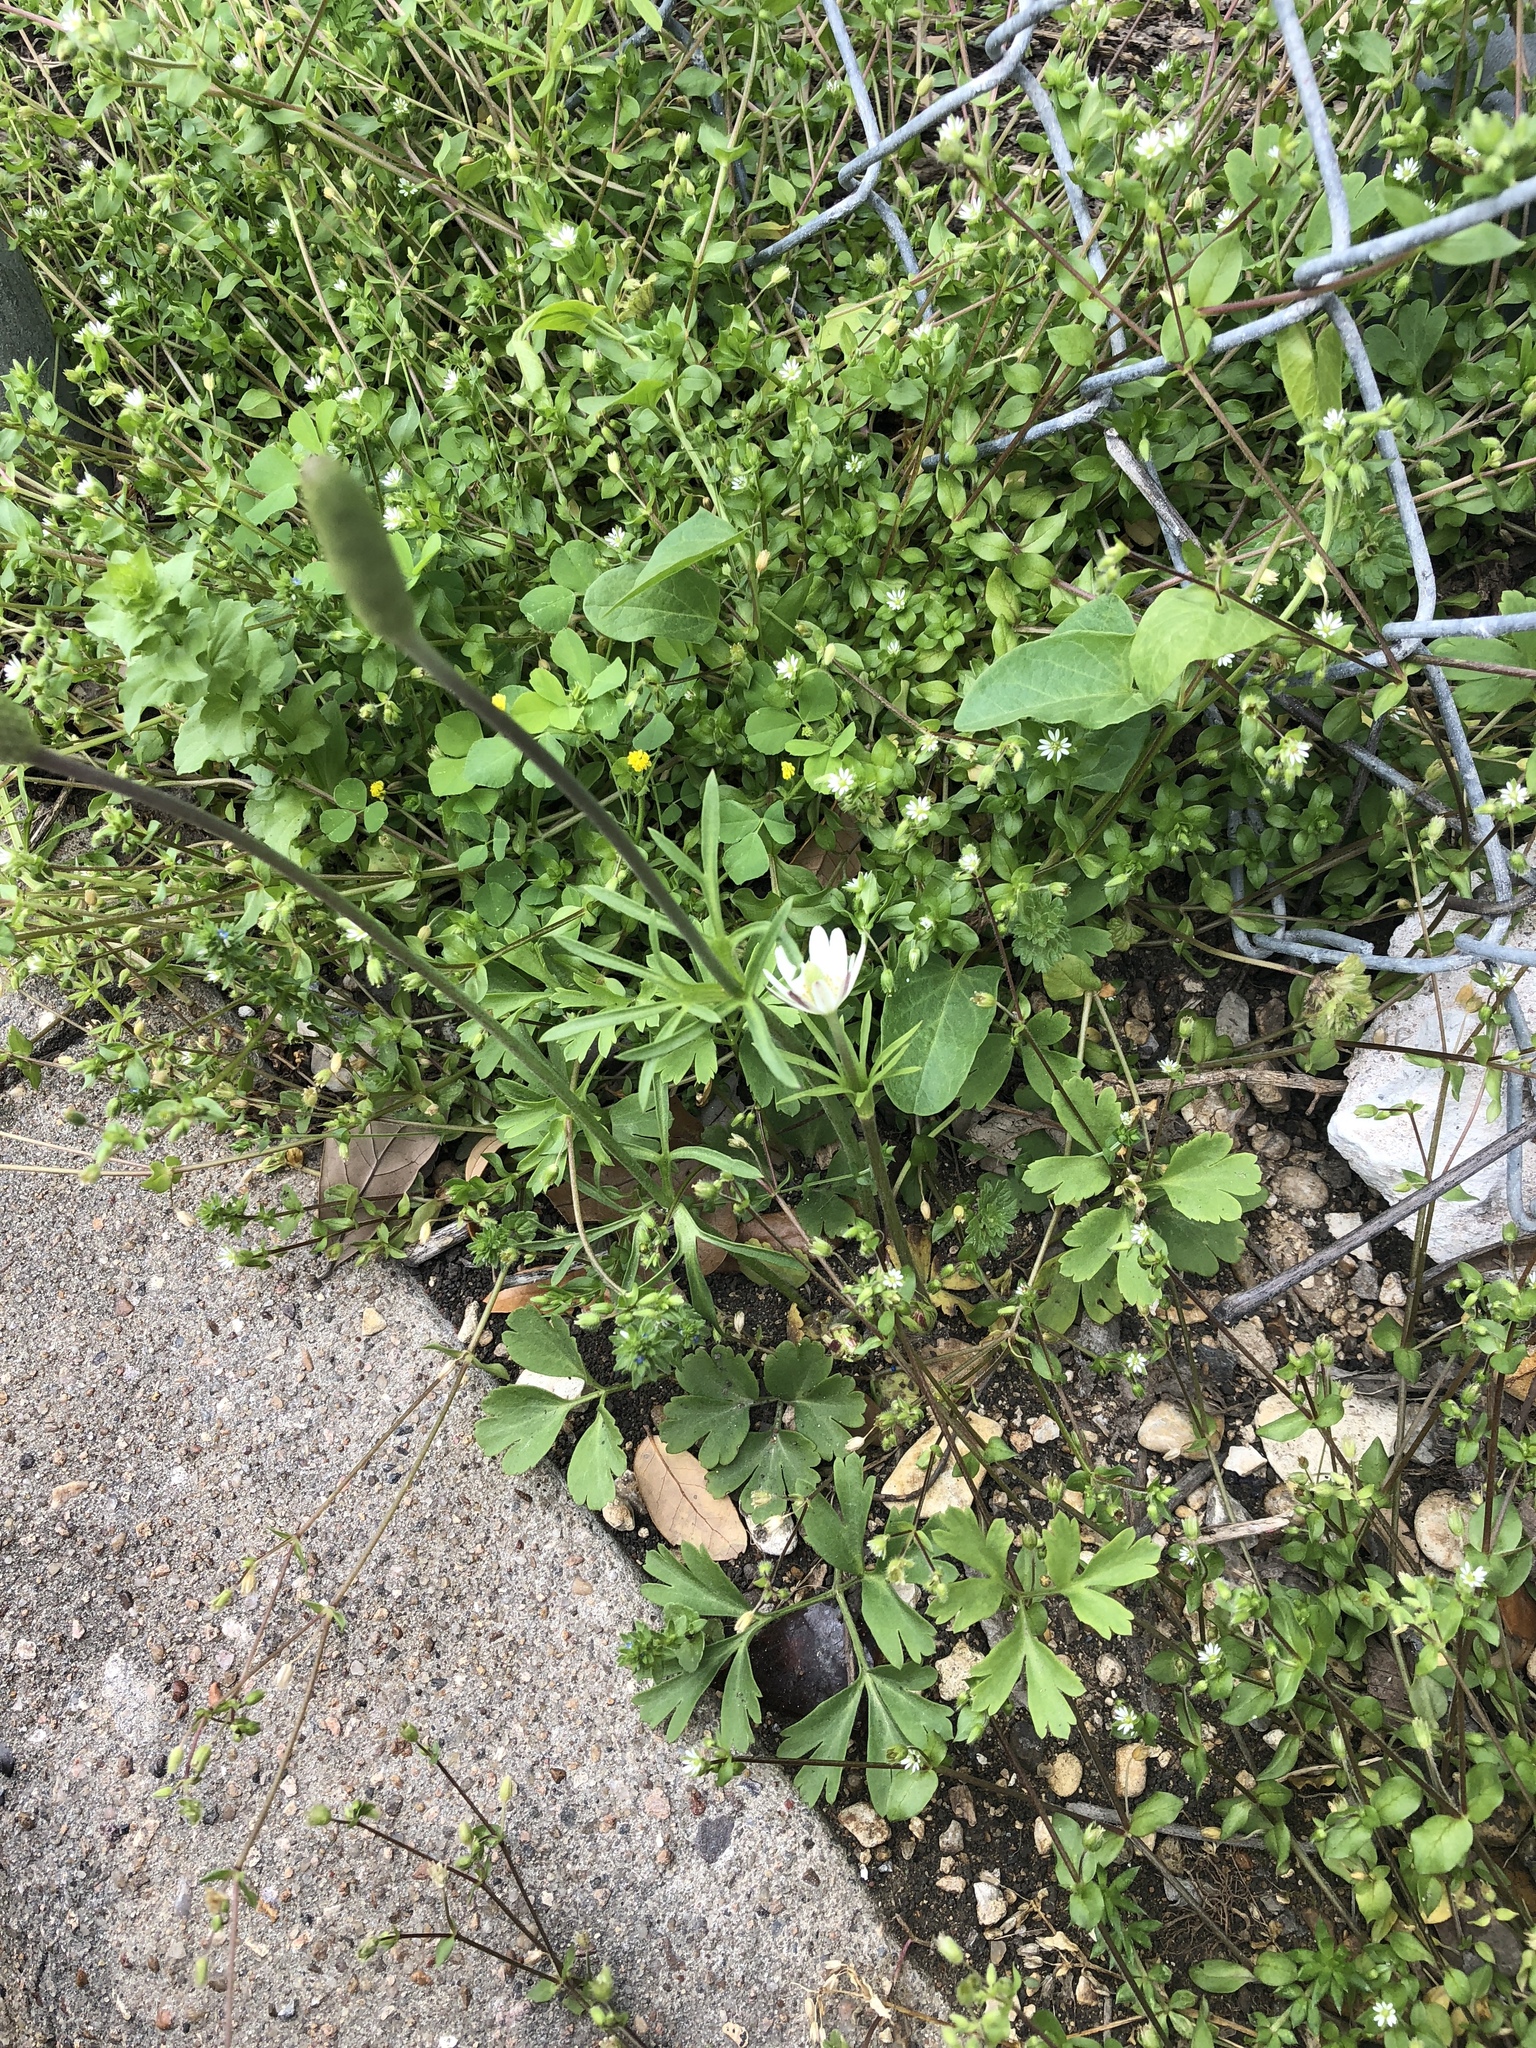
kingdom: Plantae
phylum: Tracheophyta
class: Magnoliopsida
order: Ranunculales
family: Ranunculaceae
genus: Anemone
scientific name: Anemone berlandieri
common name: Ten-petal anemone
